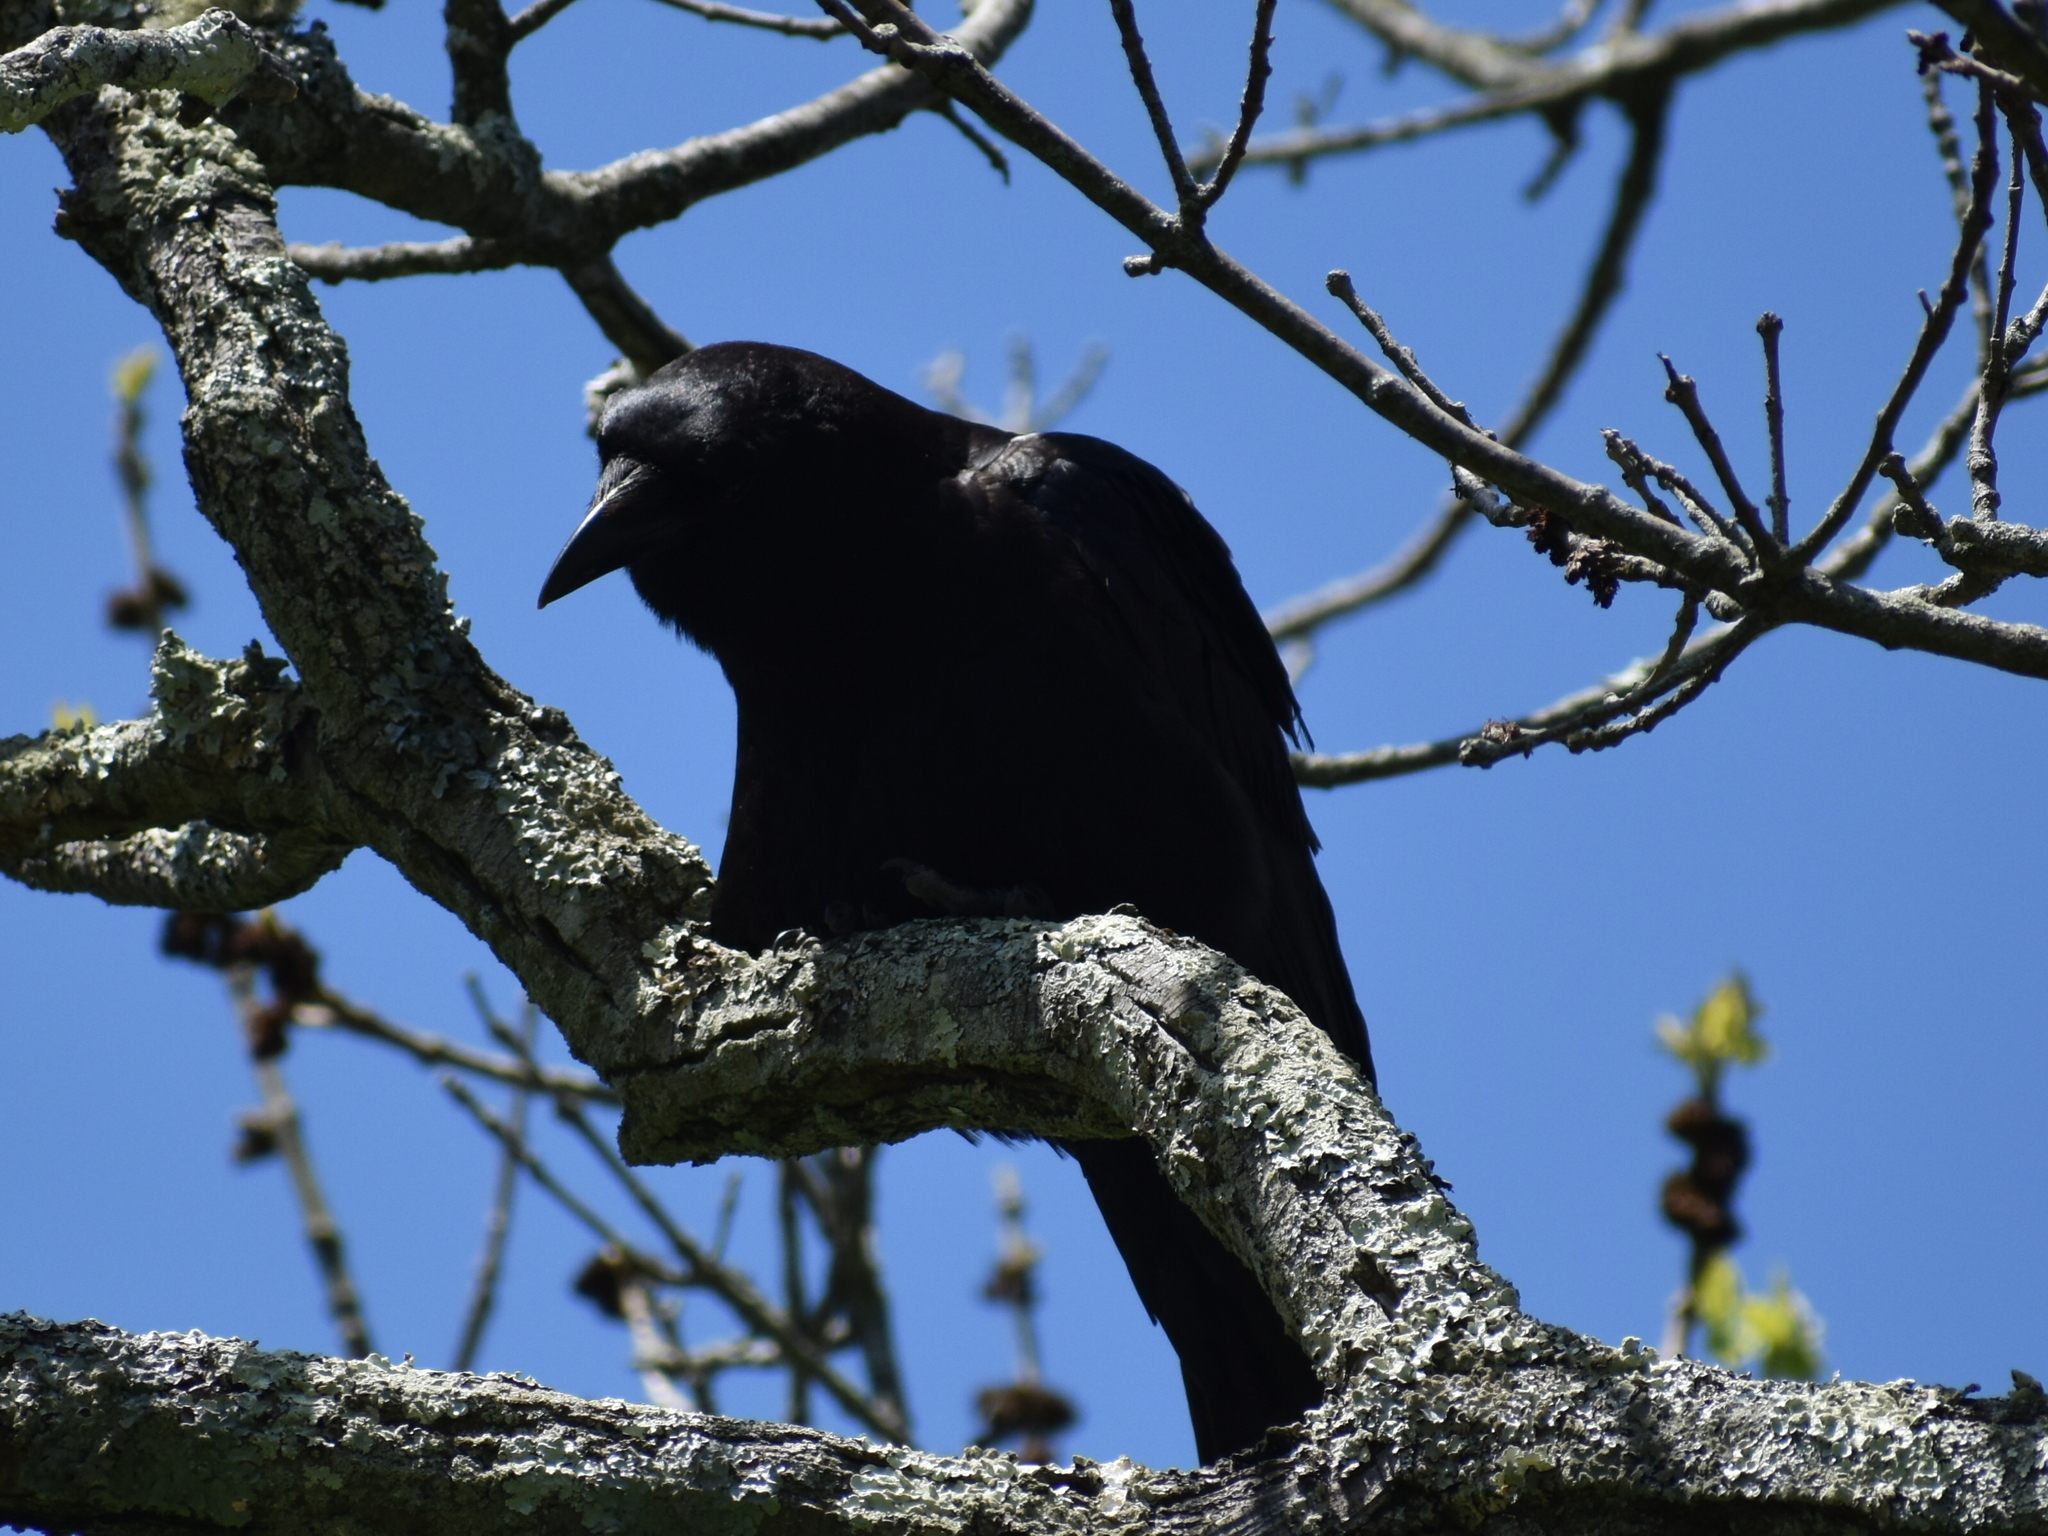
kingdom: Animalia
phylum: Chordata
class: Aves
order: Passeriformes
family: Corvidae
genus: Corvus
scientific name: Corvus corax
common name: Common raven
